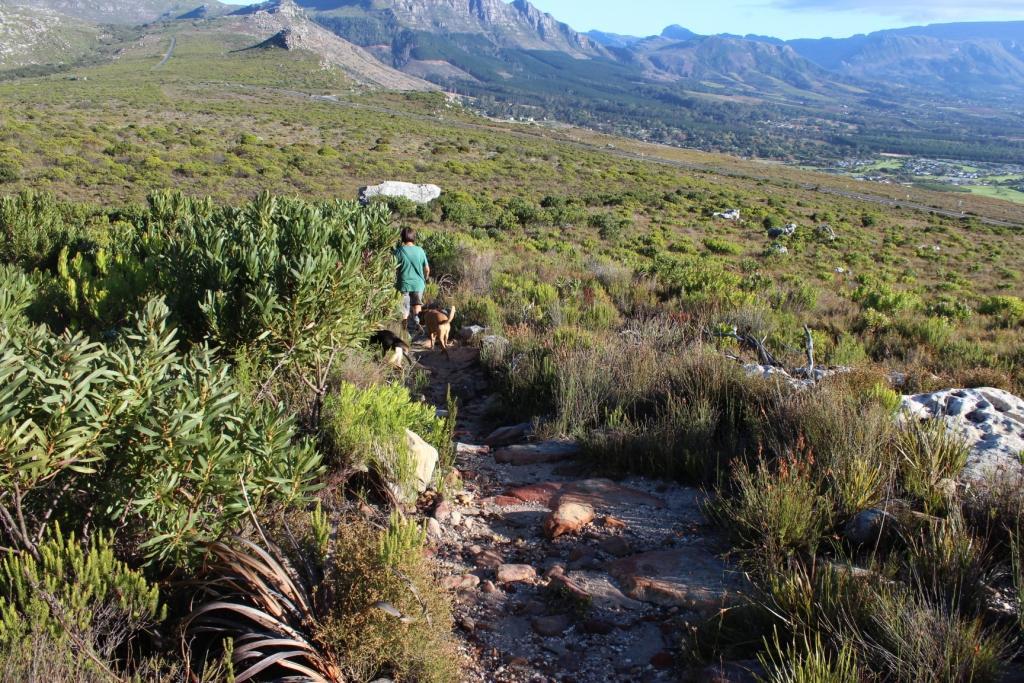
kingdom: Plantae
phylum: Tracheophyta
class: Magnoliopsida
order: Proteales
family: Proteaceae
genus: Protea
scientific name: Protea lepidocarpodendron
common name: Black-bearded protea
